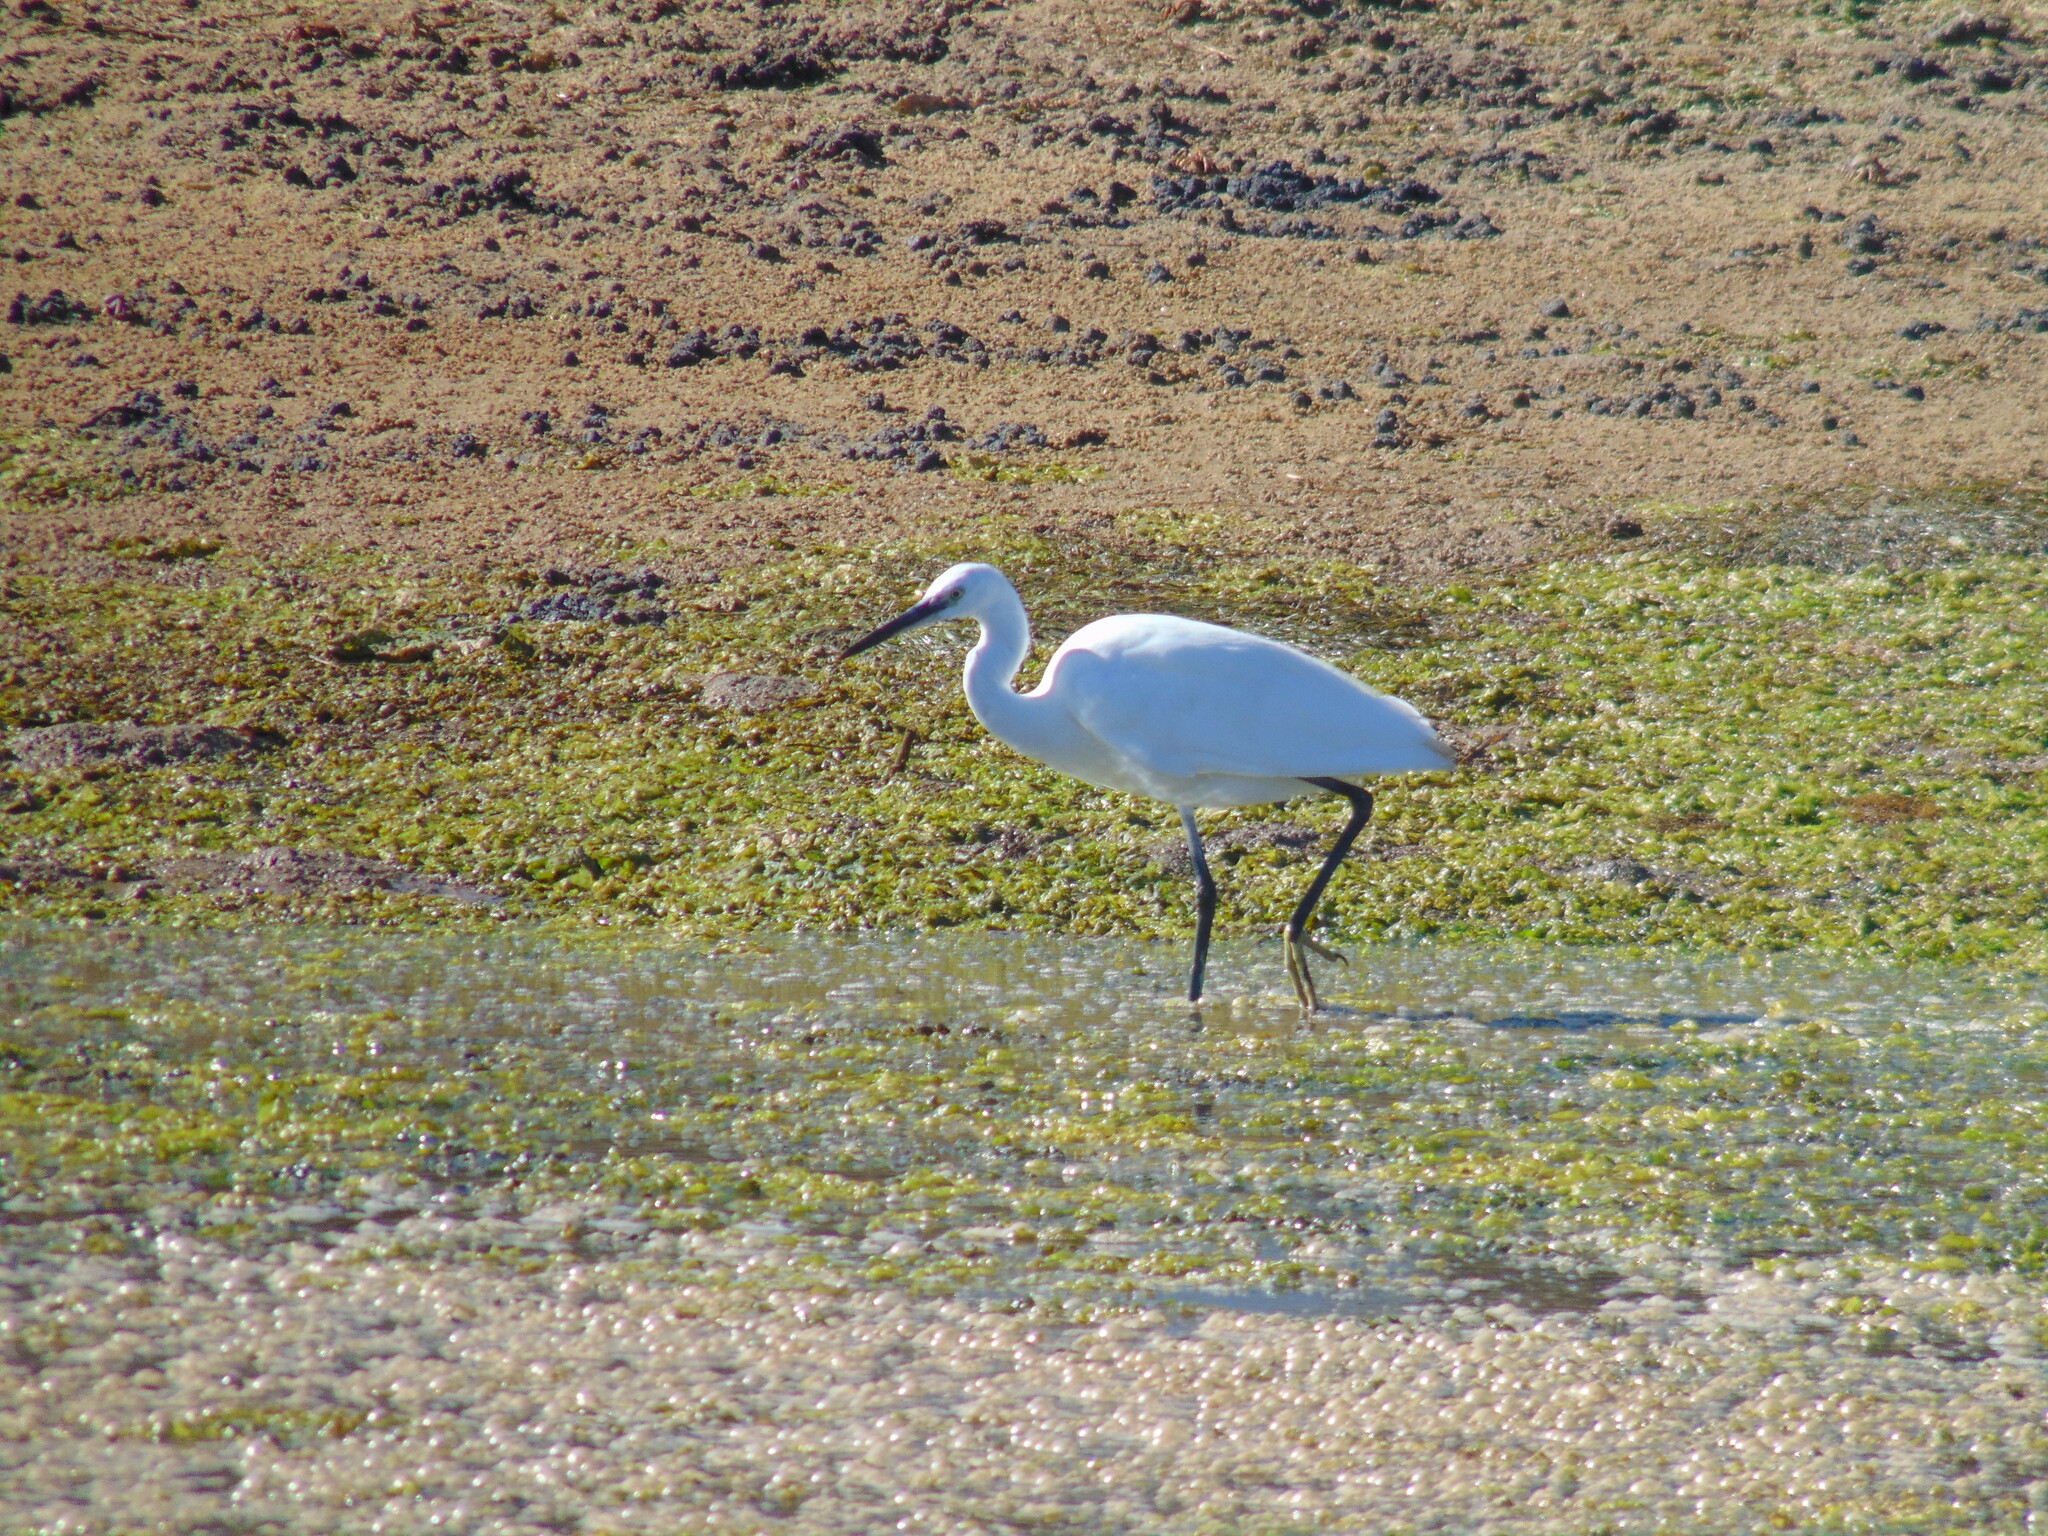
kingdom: Animalia
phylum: Chordata
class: Aves
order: Pelecaniformes
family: Ardeidae
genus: Egretta
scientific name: Egretta garzetta
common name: Little egret
